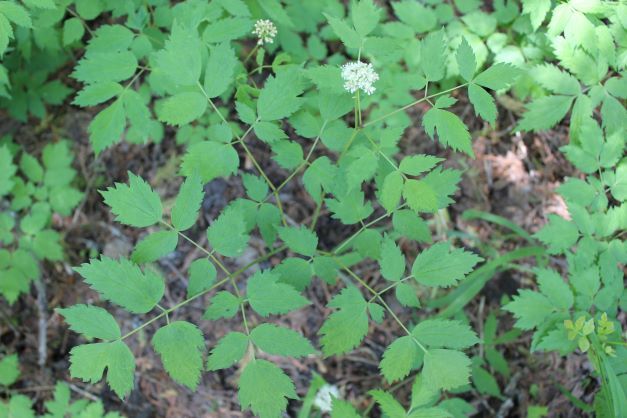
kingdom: Plantae
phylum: Tracheophyta
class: Magnoliopsida
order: Ranunculales
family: Ranunculaceae
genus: Actaea
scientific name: Actaea pachypoda
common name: Doll's-eyes
